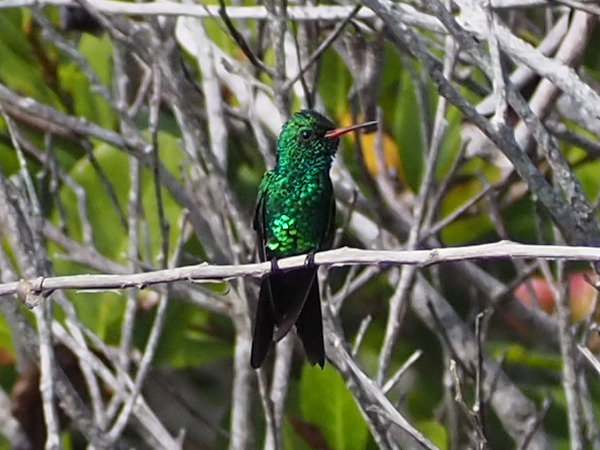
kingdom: Animalia
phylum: Chordata
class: Aves
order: Apodiformes
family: Trochilidae
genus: Cynanthus
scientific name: Cynanthus canivetii
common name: Canivet's emerald
